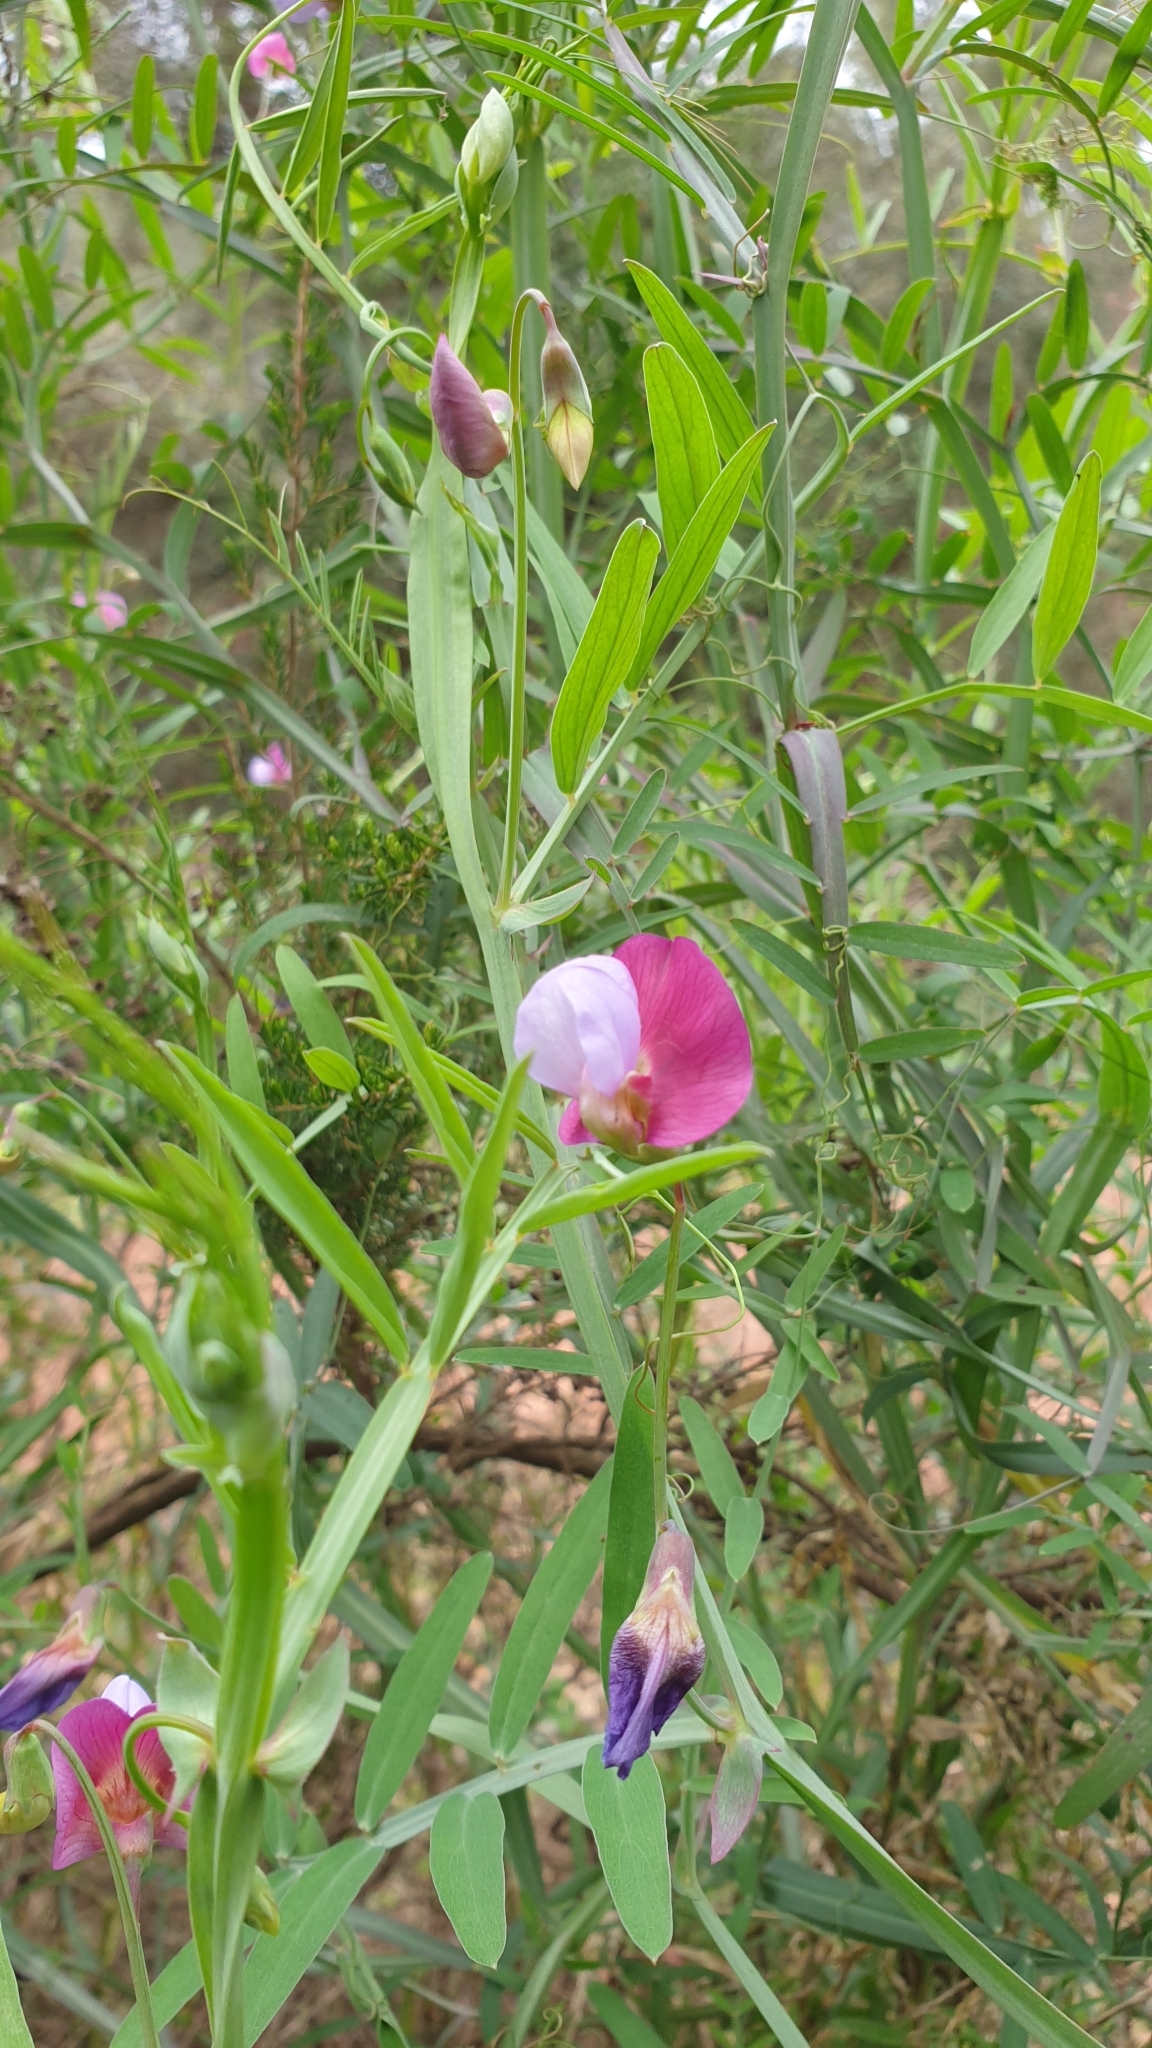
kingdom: Plantae
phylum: Tracheophyta
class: Magnoliopsida
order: Fabales
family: Fabaceae
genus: Lathyrus
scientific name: Lathyrus clymenum
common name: Spanish vetchling
